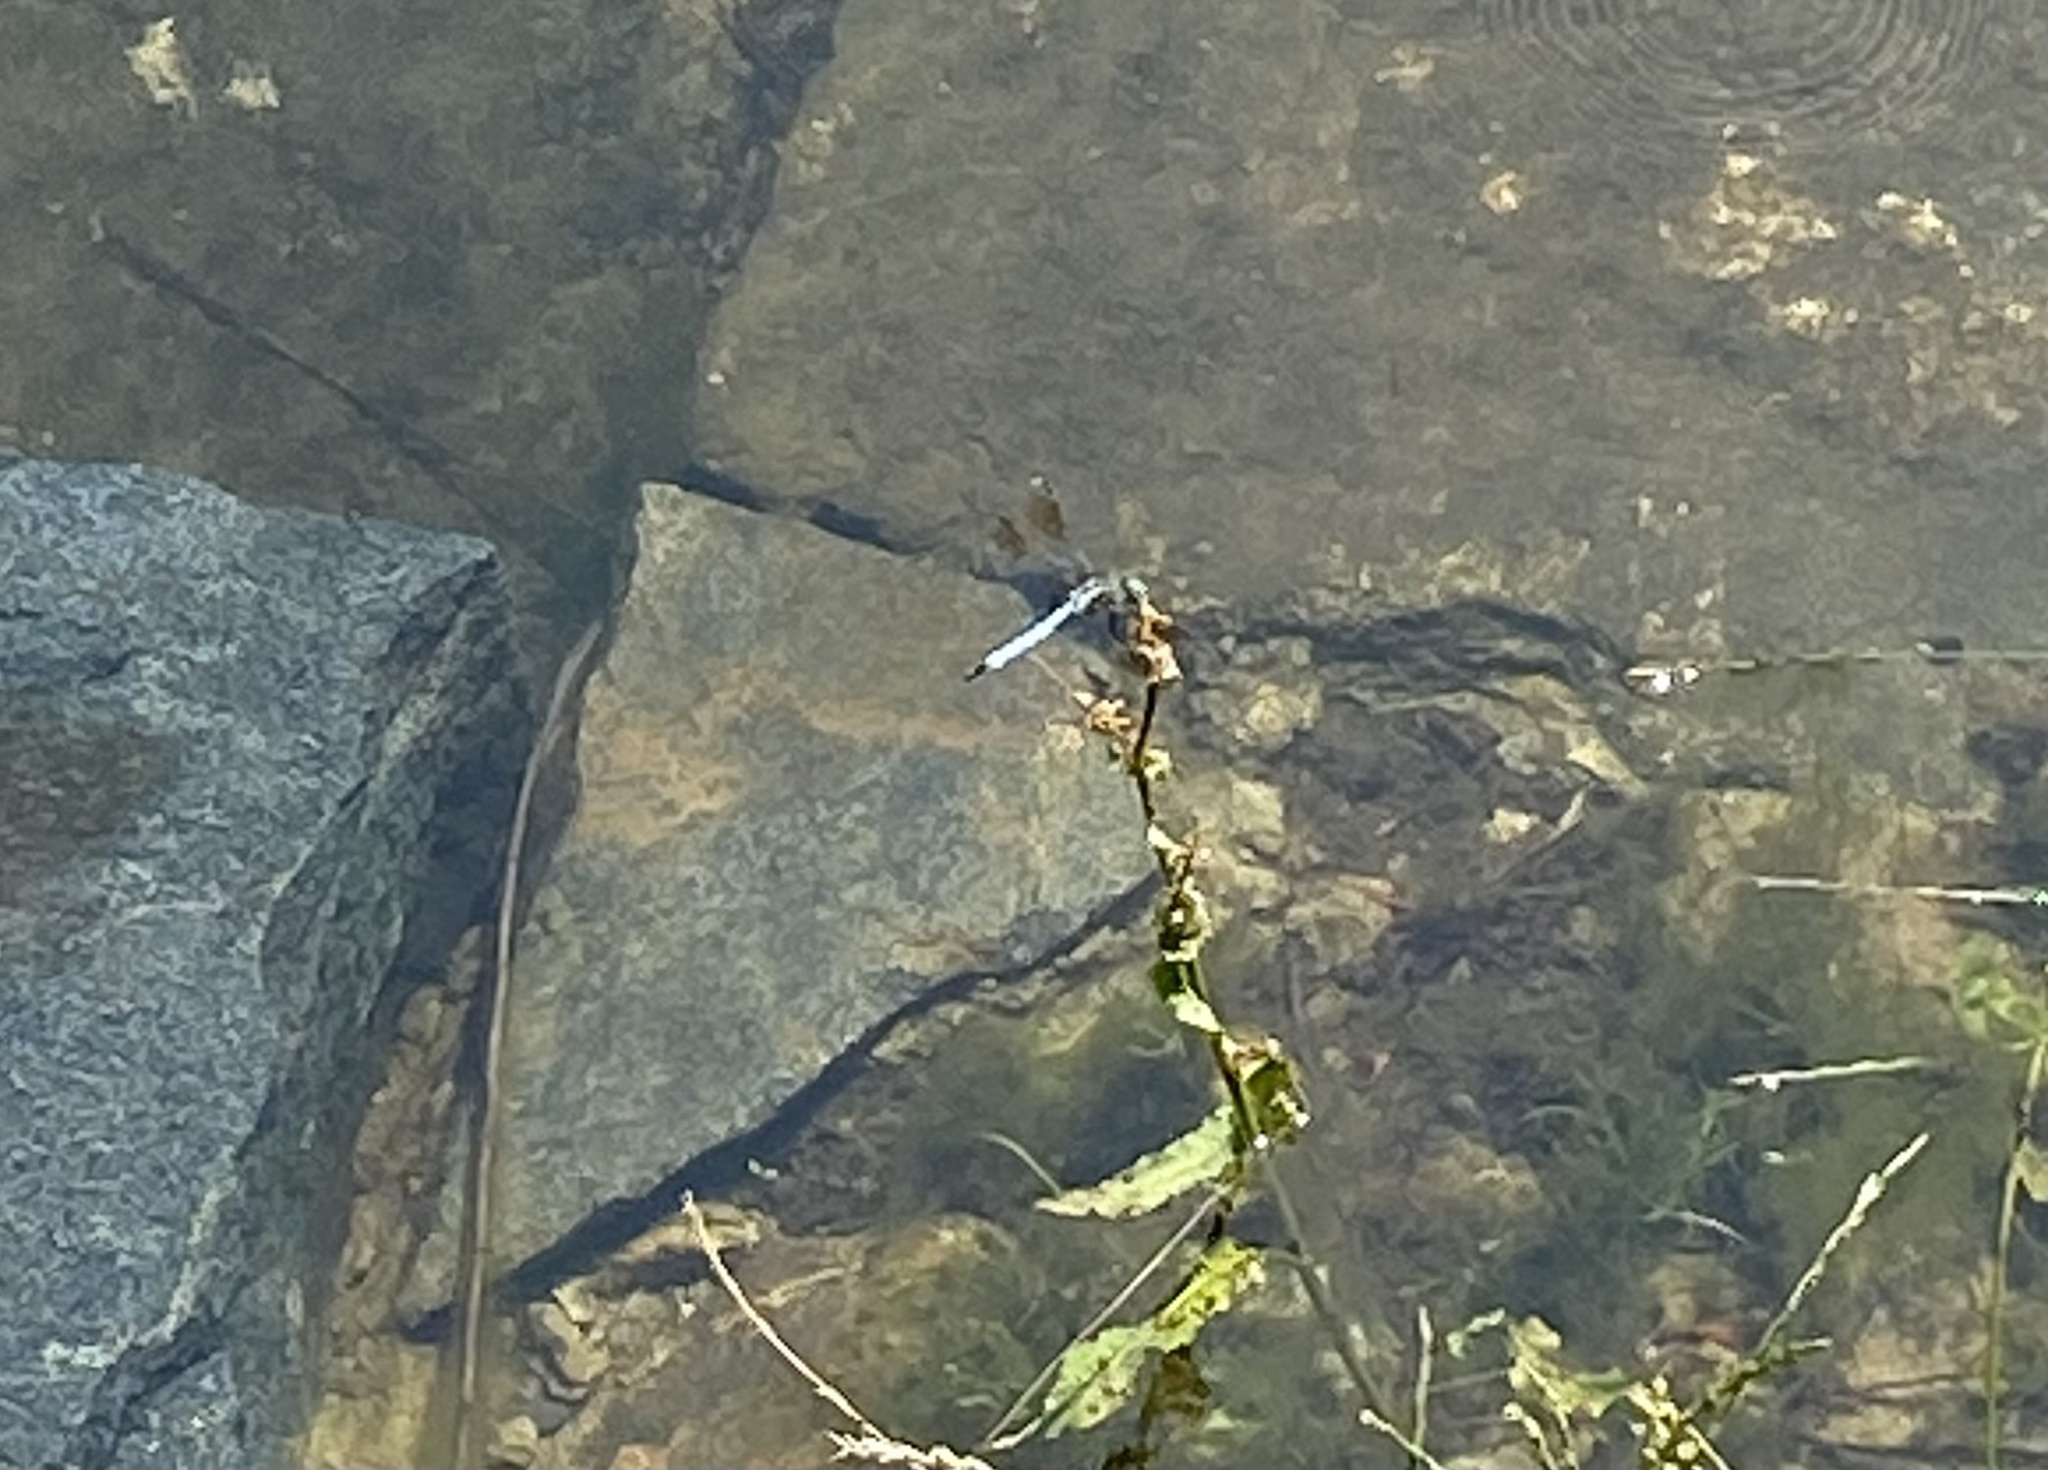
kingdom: Animalia
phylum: Arthropoda
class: Insecta
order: Odonata
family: Libellulidae
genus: Pachydiplax
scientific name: Pachydiplax longipennis
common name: Blue dasher
